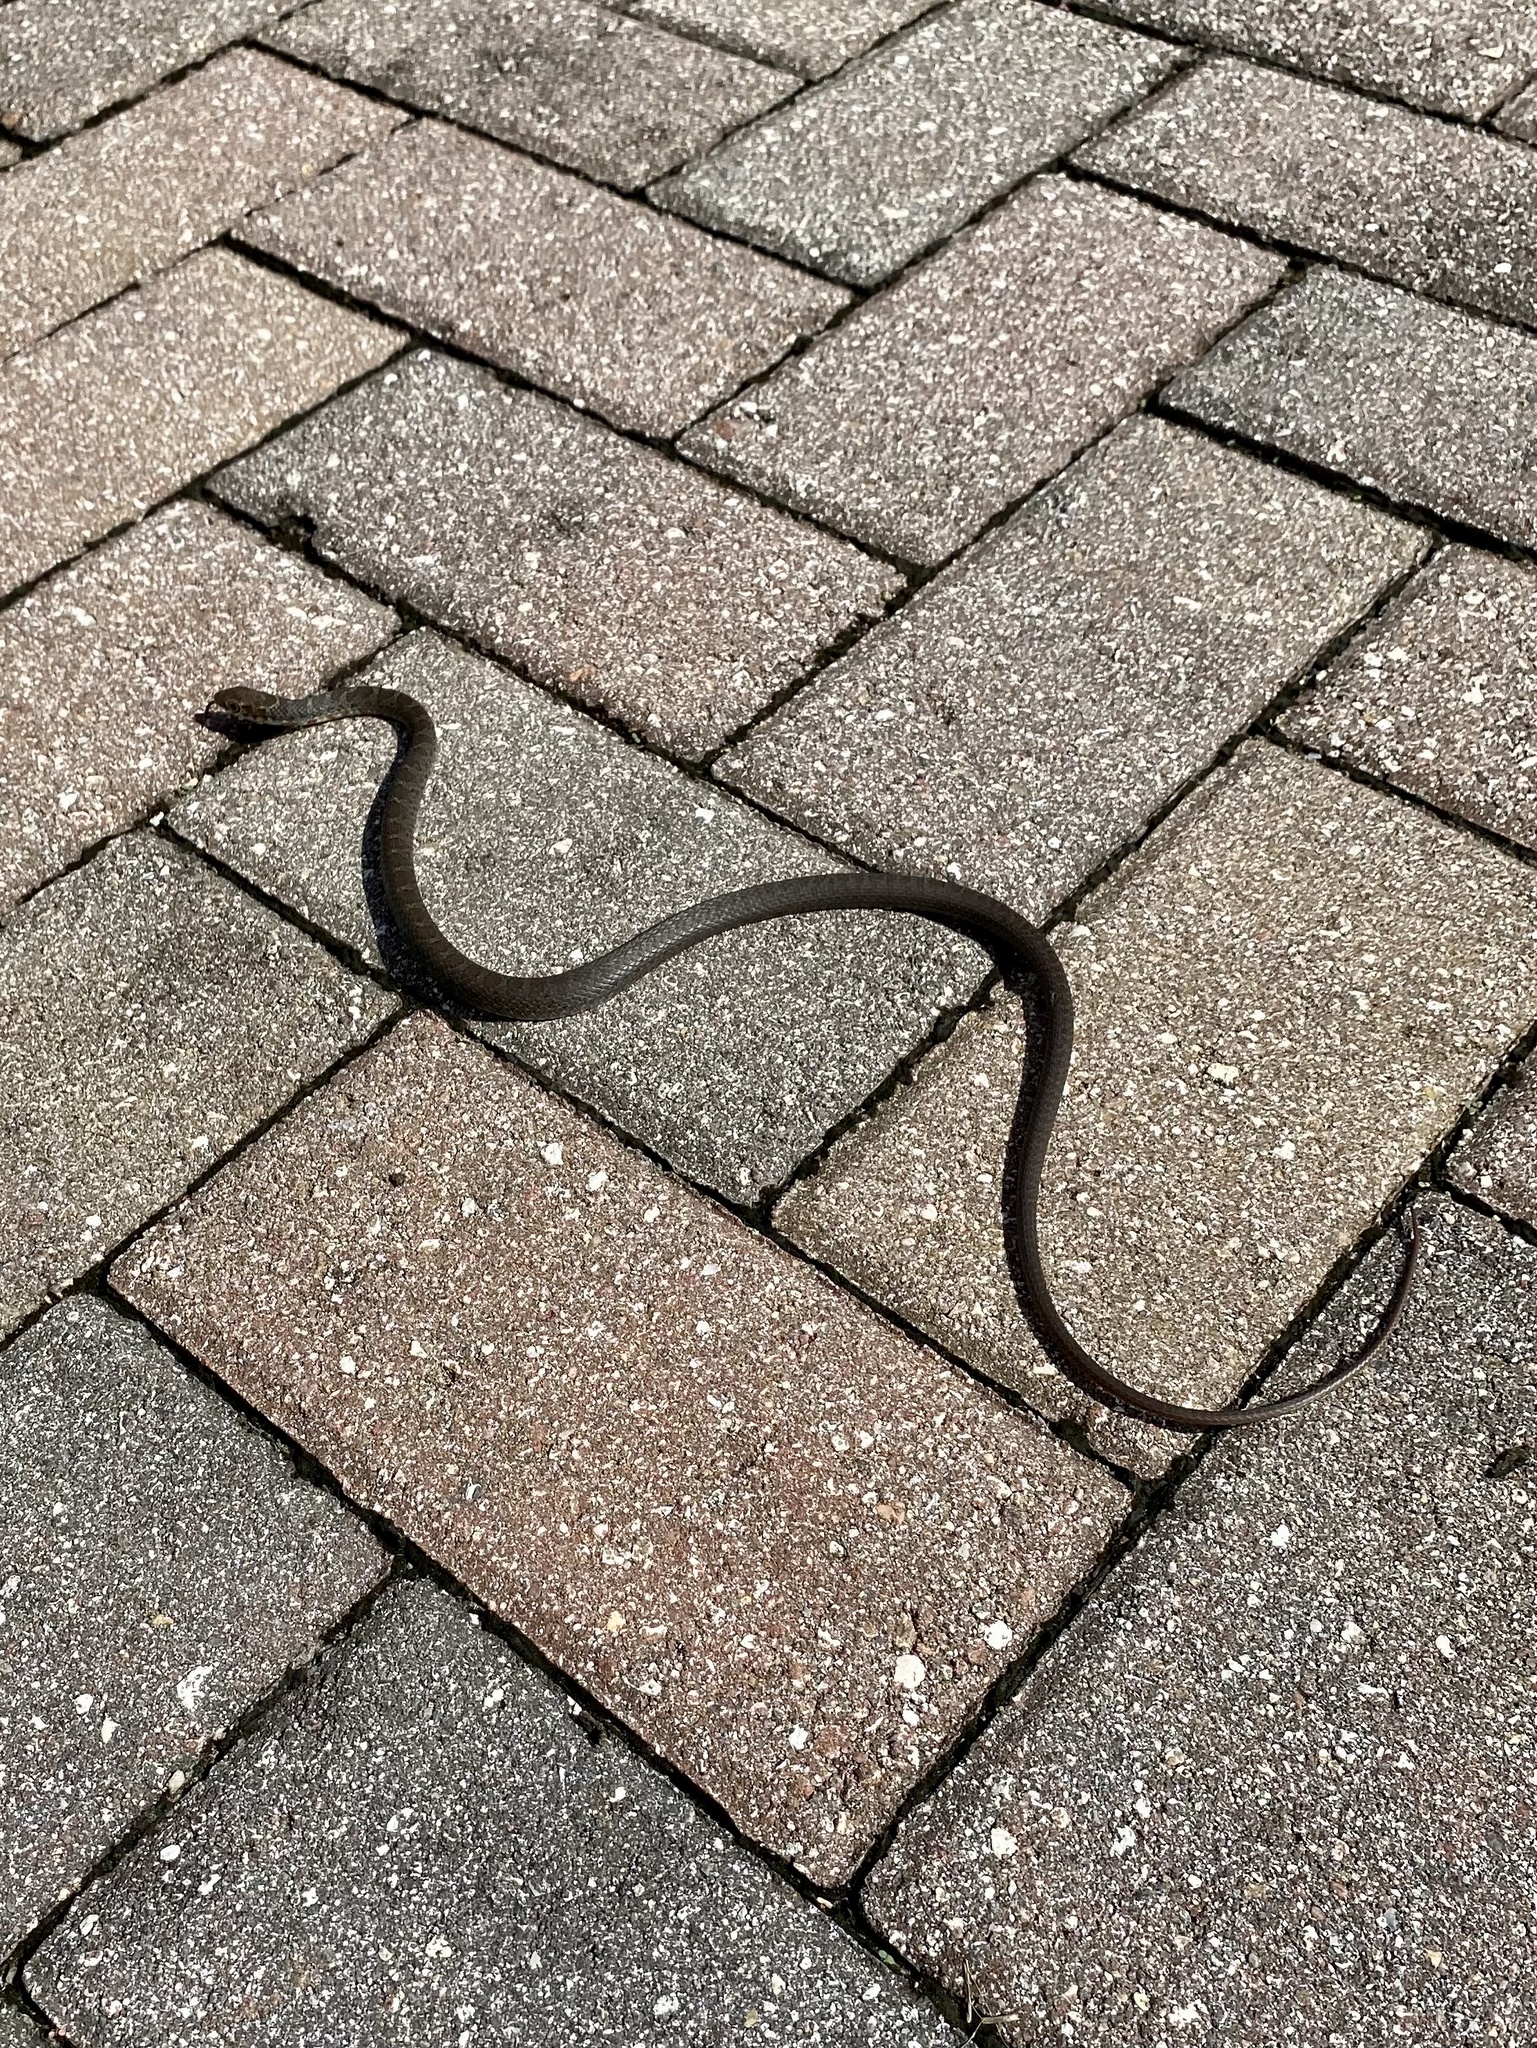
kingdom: Animalia
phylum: Chordata
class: Squamata
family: Colubridae
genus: Coluber
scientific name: Coluber constrictor
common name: Eastern racer
